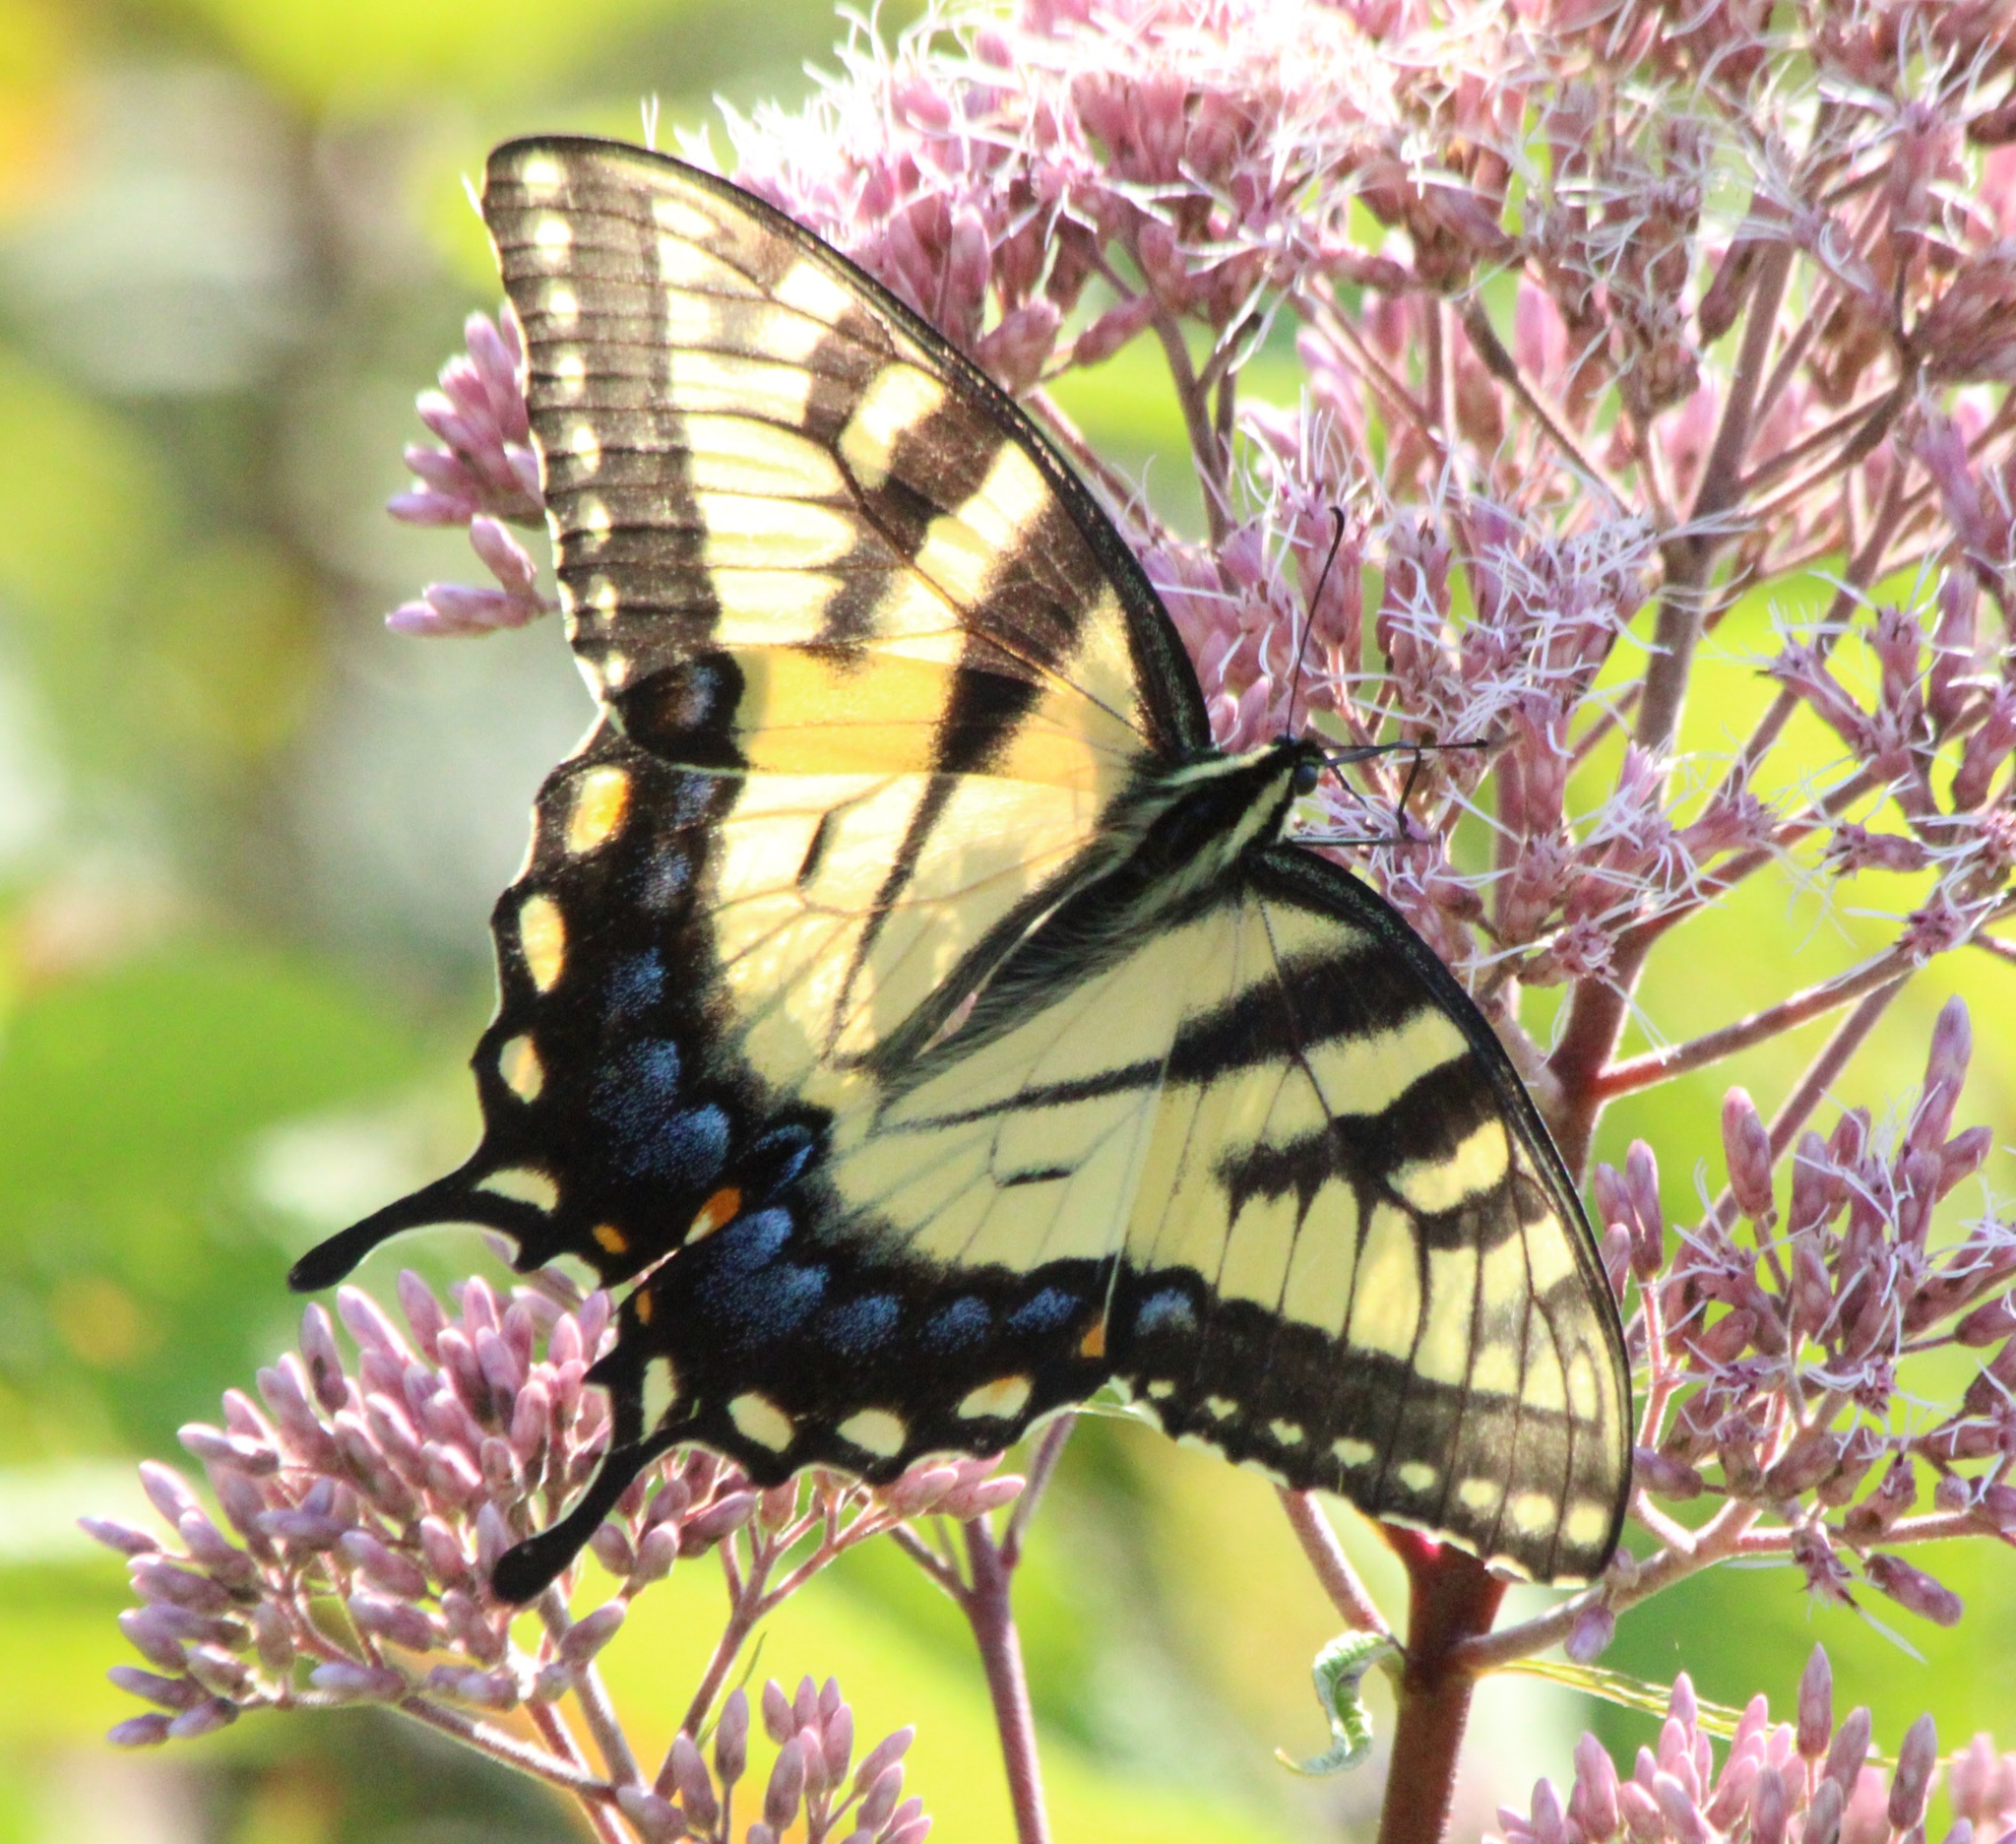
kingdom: Animalia
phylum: Arthropoda
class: Insecta
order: Lepidoptera
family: Papilionidae
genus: Papilio
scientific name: Papilio glaucus
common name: Tiger swallowtail
